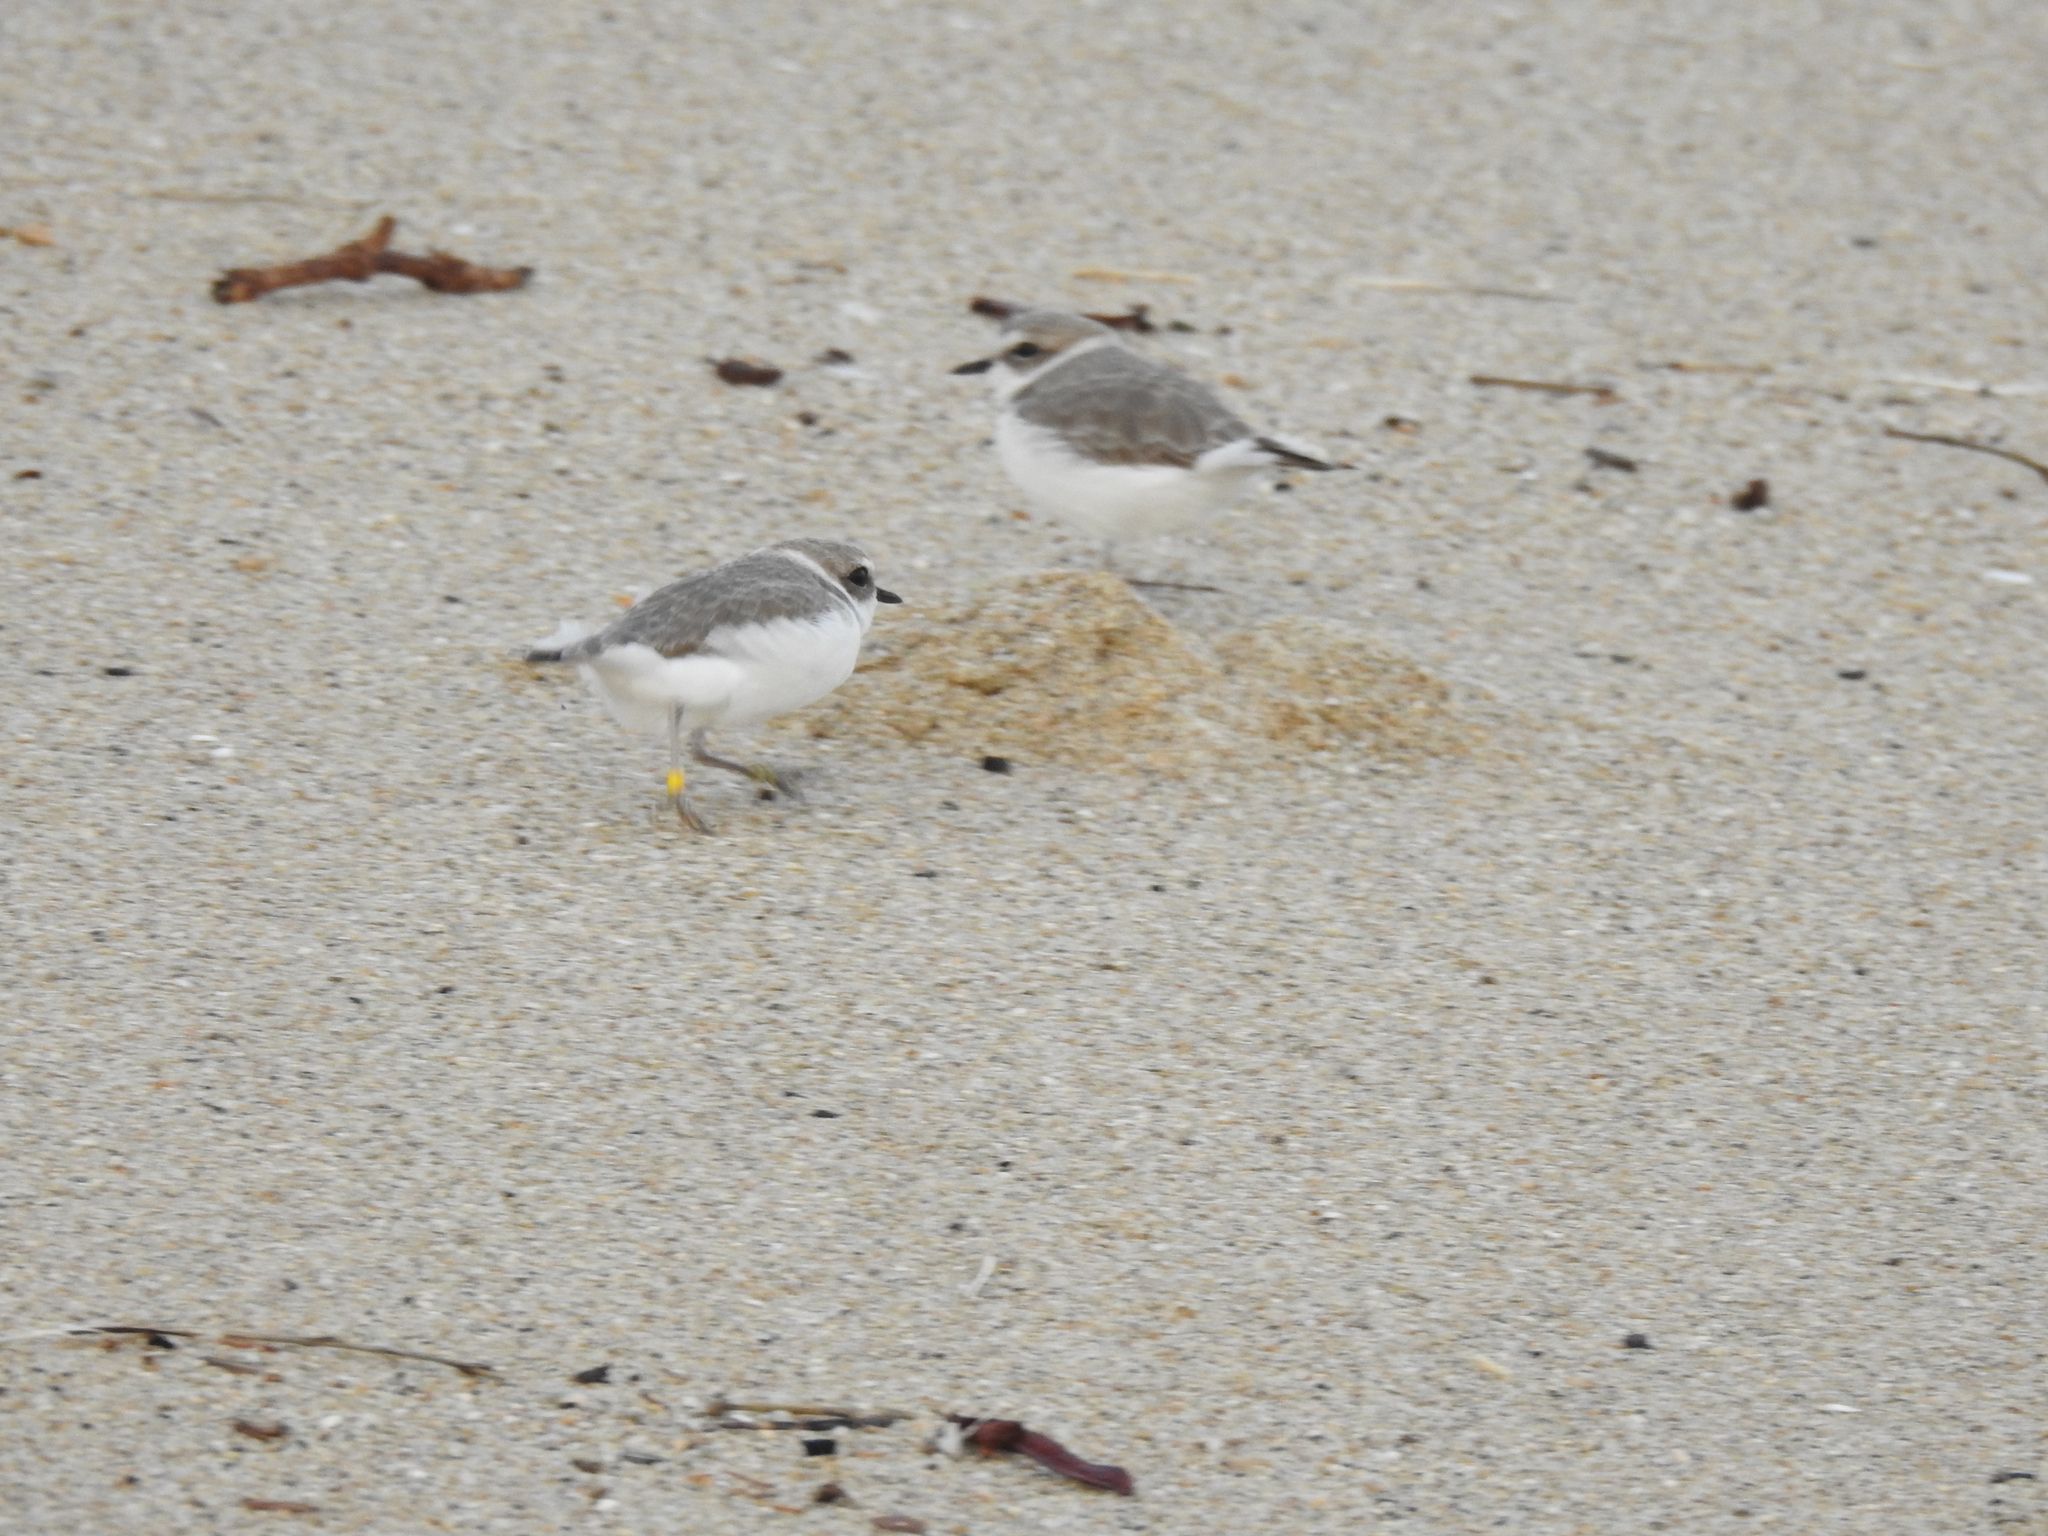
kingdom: Animalia
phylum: Chordata
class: Aves
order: Charadriiformes
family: Charadriidae
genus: Anarhynchus
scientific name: Anarhynchus
